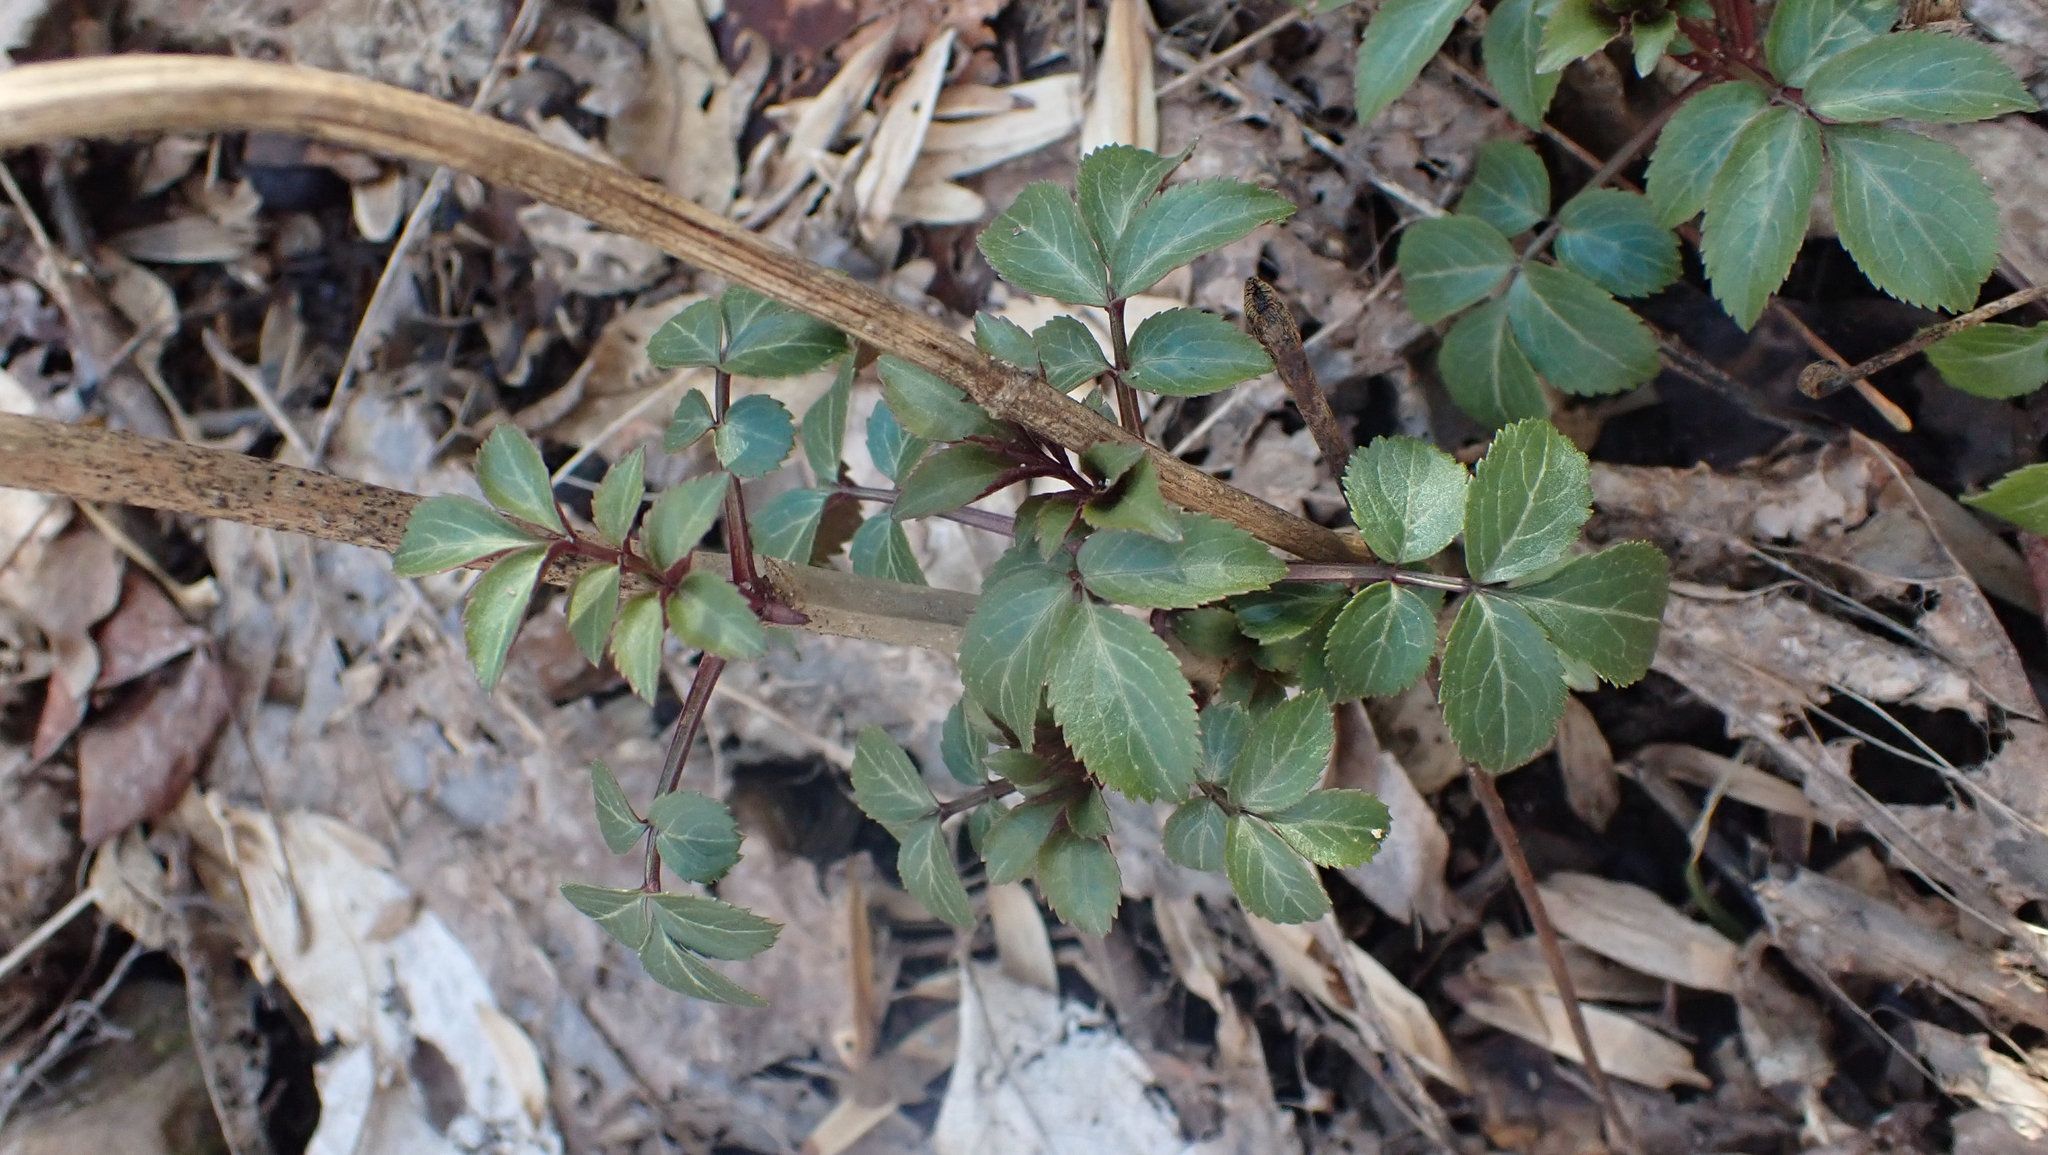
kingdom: Plantae
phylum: Tracheophyta
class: Magnoliopsida
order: Dipsacales
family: Viburnaceae
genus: Sambucus
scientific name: Sambucus canadensis
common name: American elder
